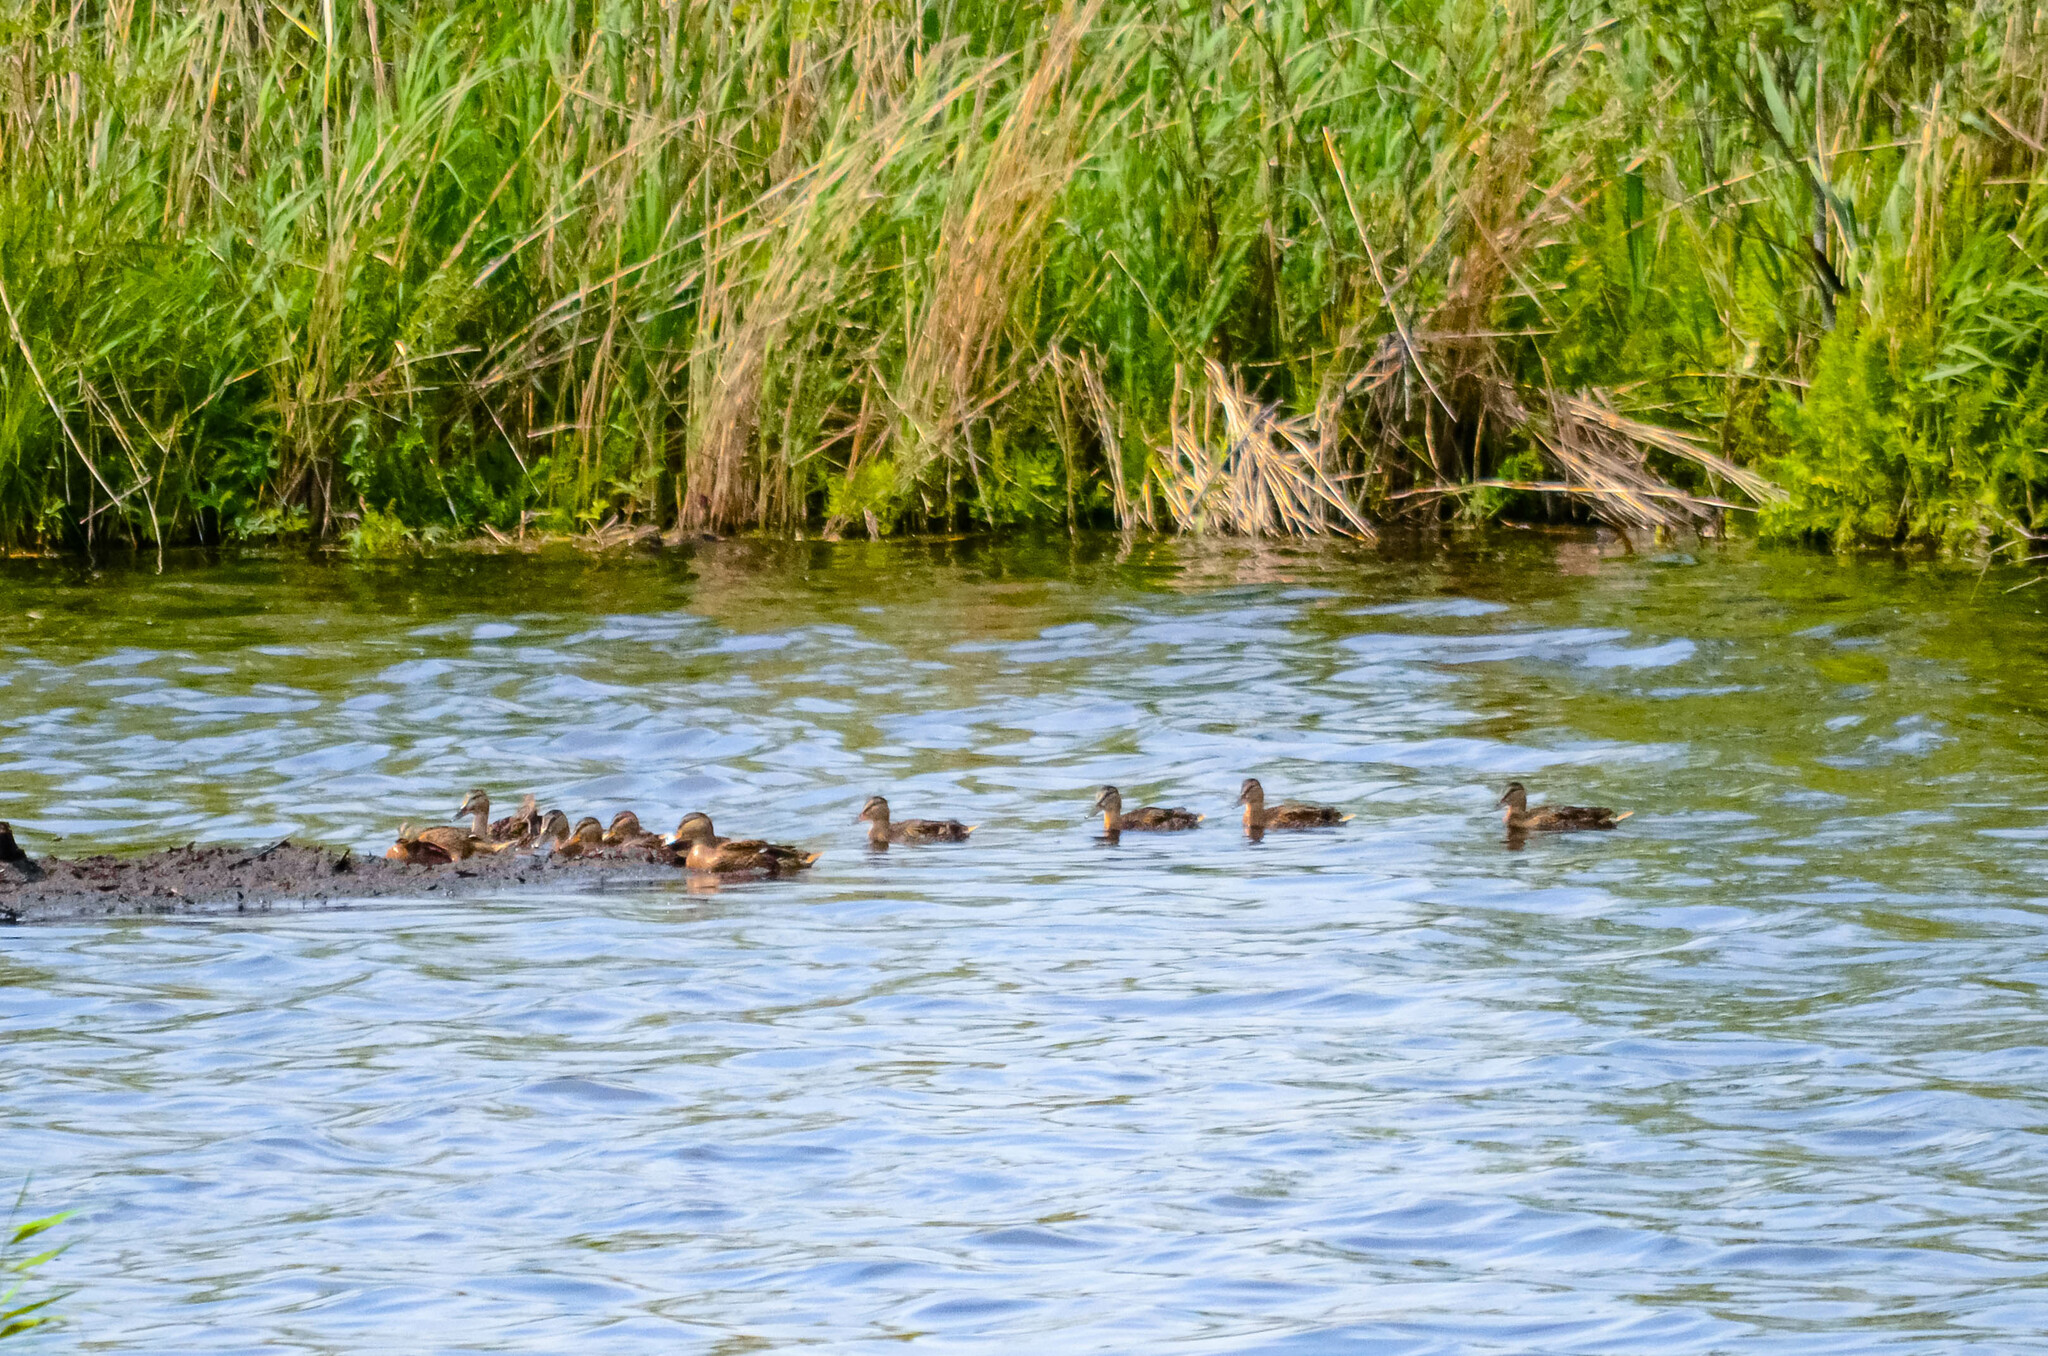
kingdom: Animalia
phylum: Chordata
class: Aves
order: Anseriformes
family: Anatidae
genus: Anas
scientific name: Anas platyrhynchos
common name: Mallard
